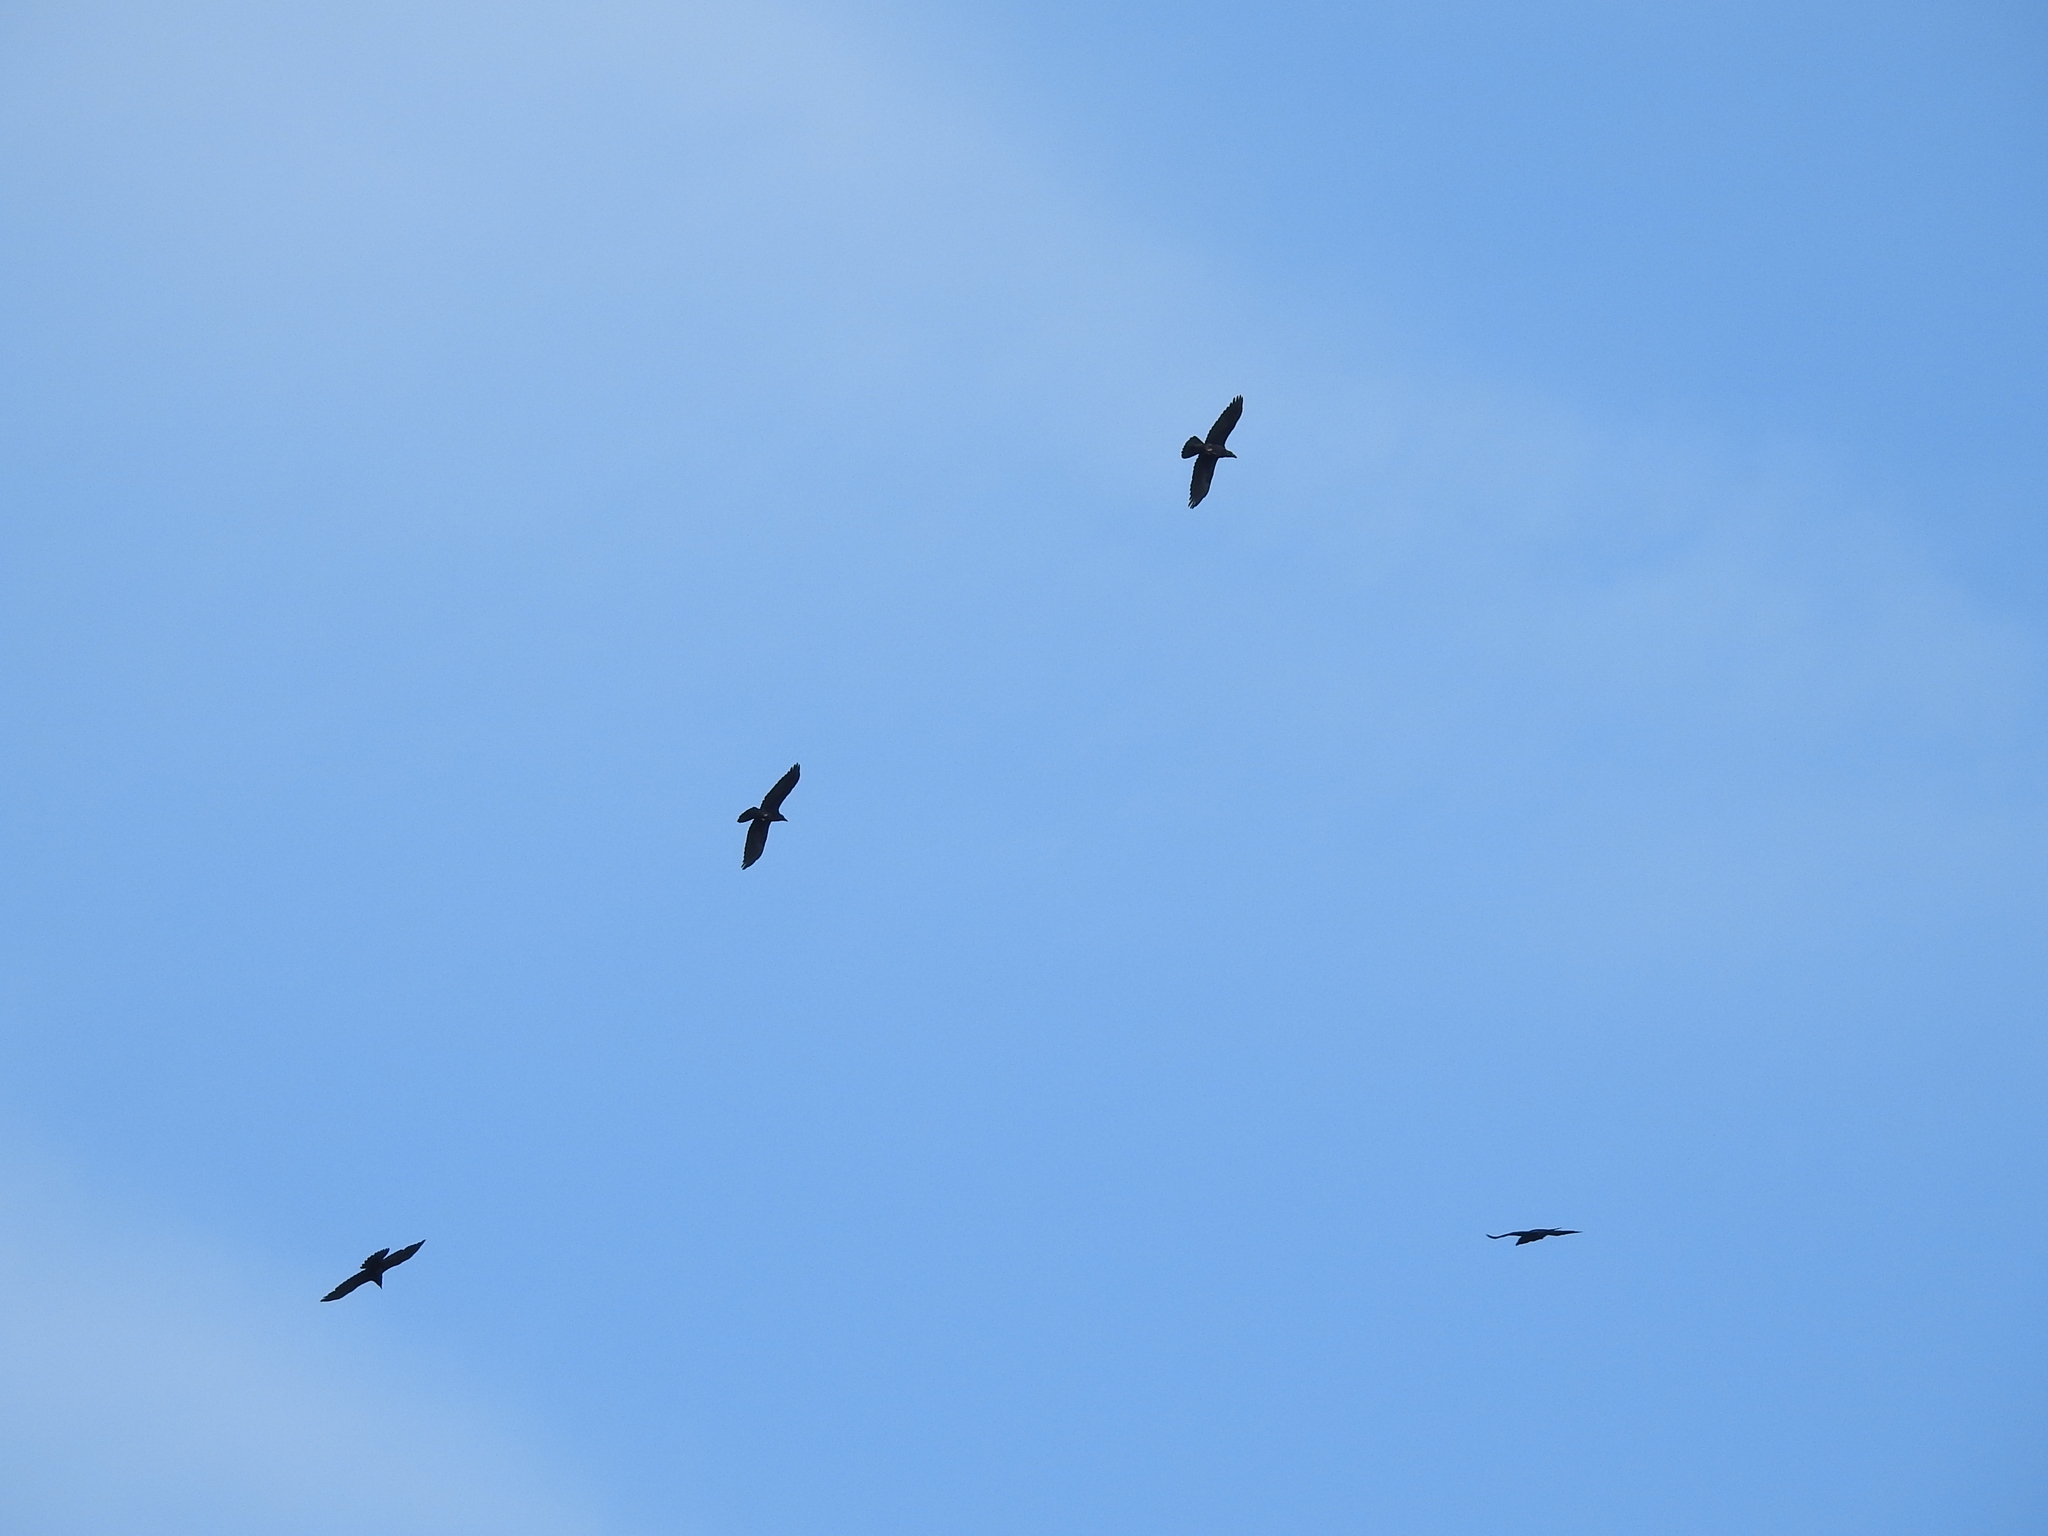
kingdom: Animalia
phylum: Chordata
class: Aves
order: Passeriformes
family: Corvidae
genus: Corvus
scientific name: Corvus corax
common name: Common raven
